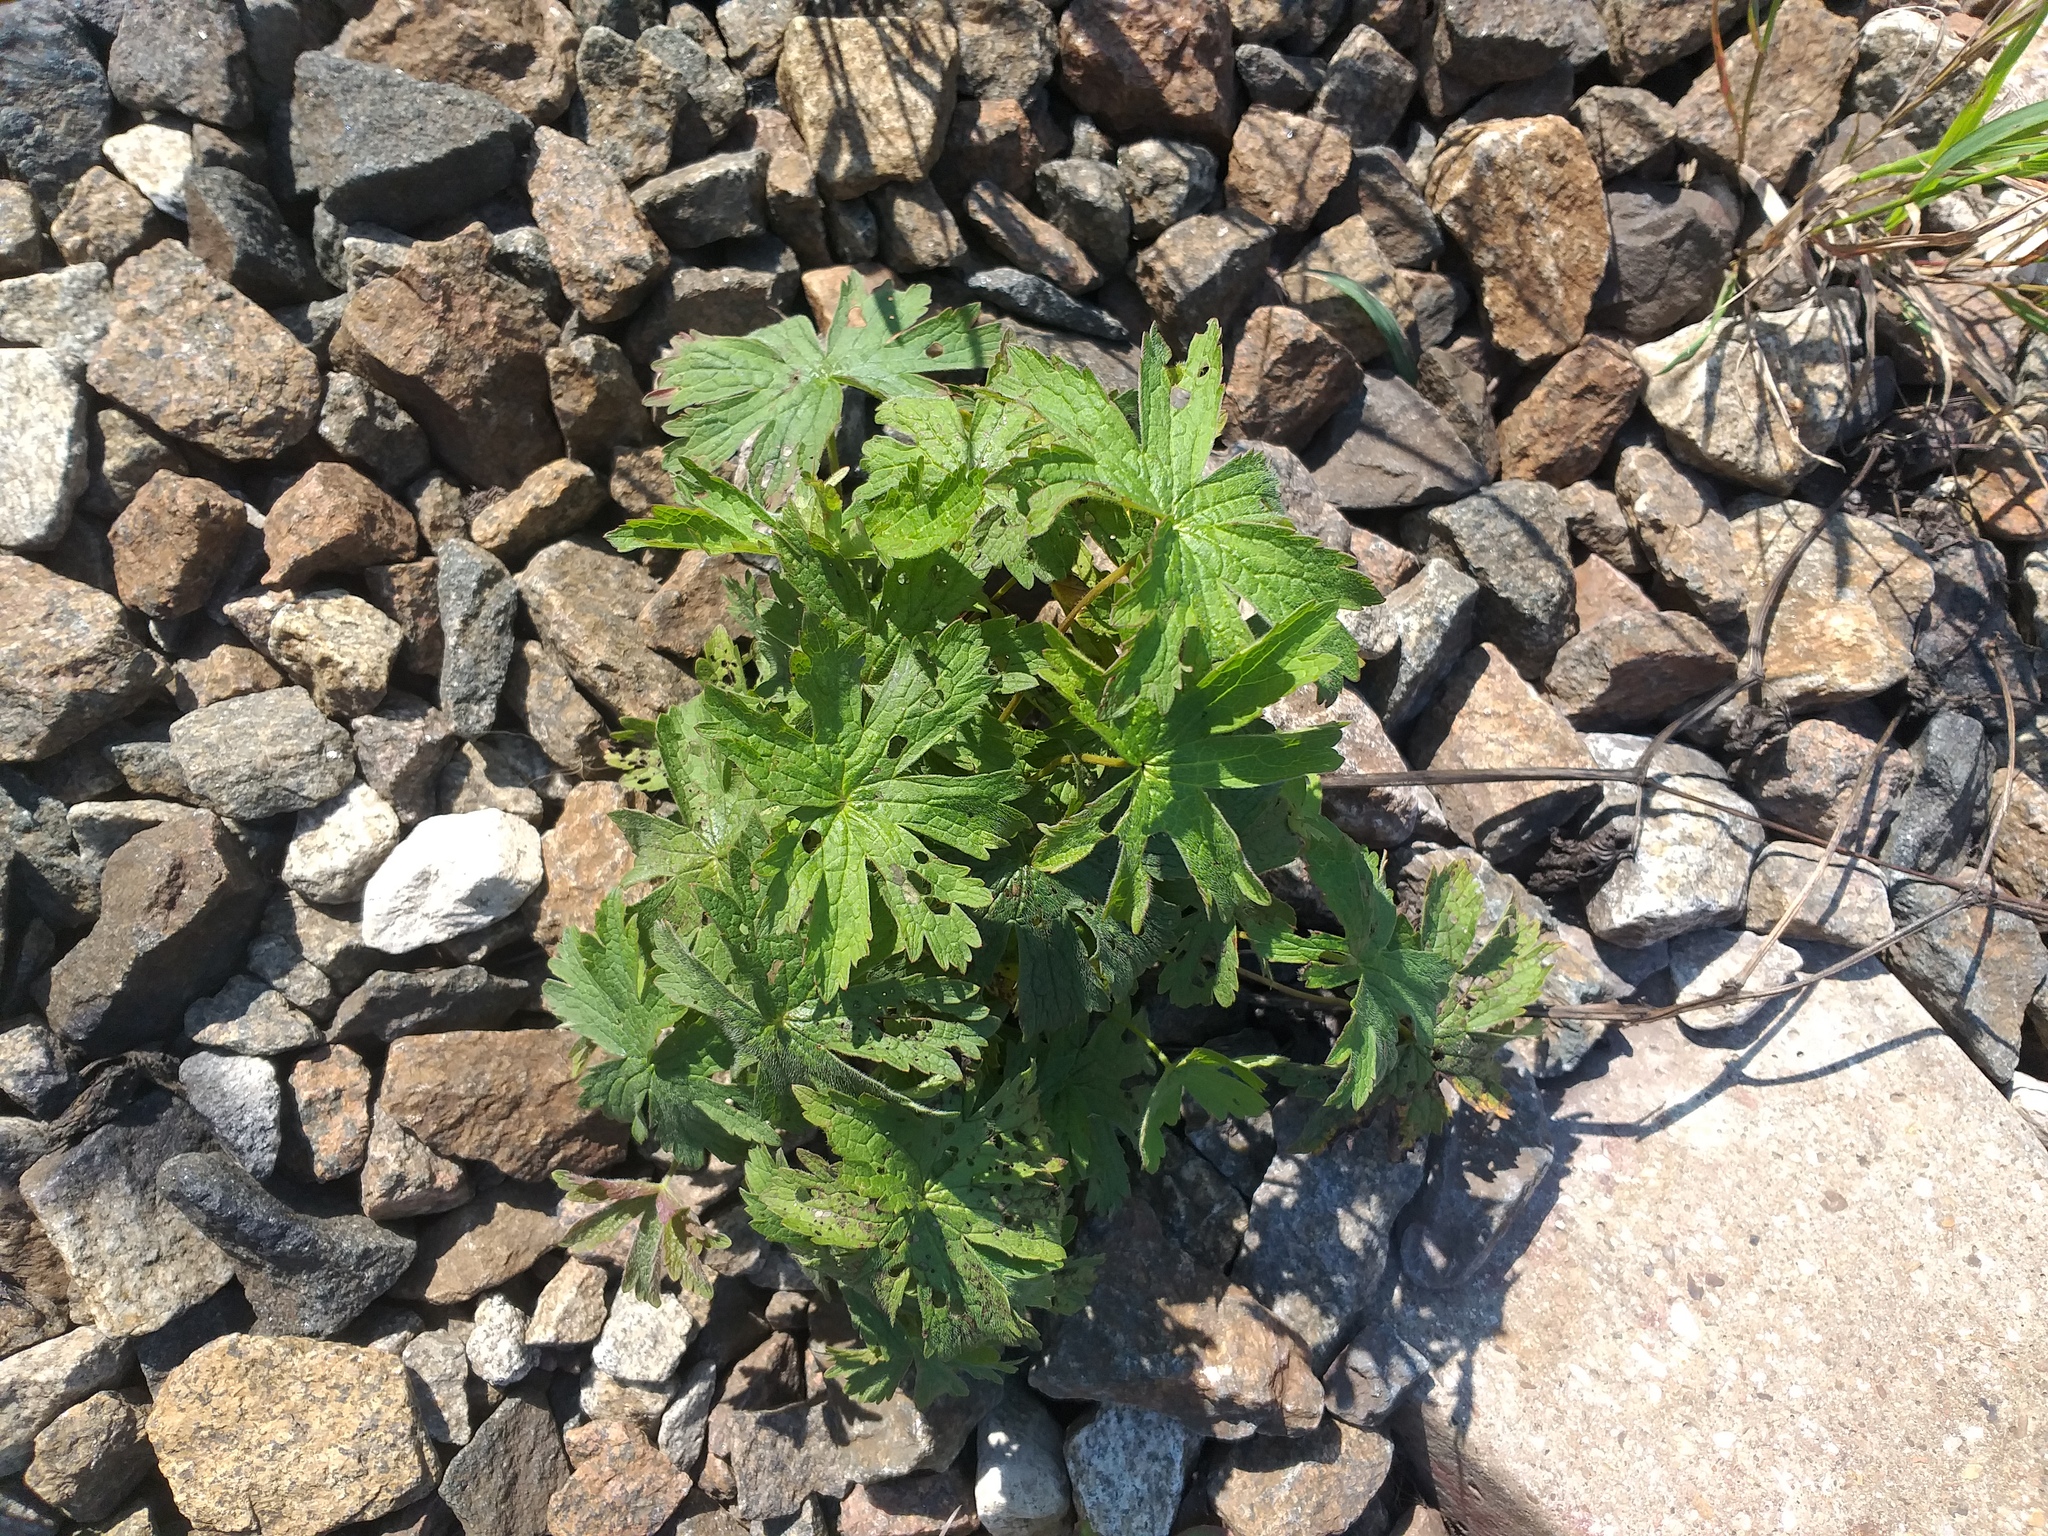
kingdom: Plantae
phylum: Tracheophyta
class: Magnoliopsida
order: Geraniales
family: Geraniaceae
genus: Geranium
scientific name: Geranium sylvaticum
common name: Wood crane's-bill
